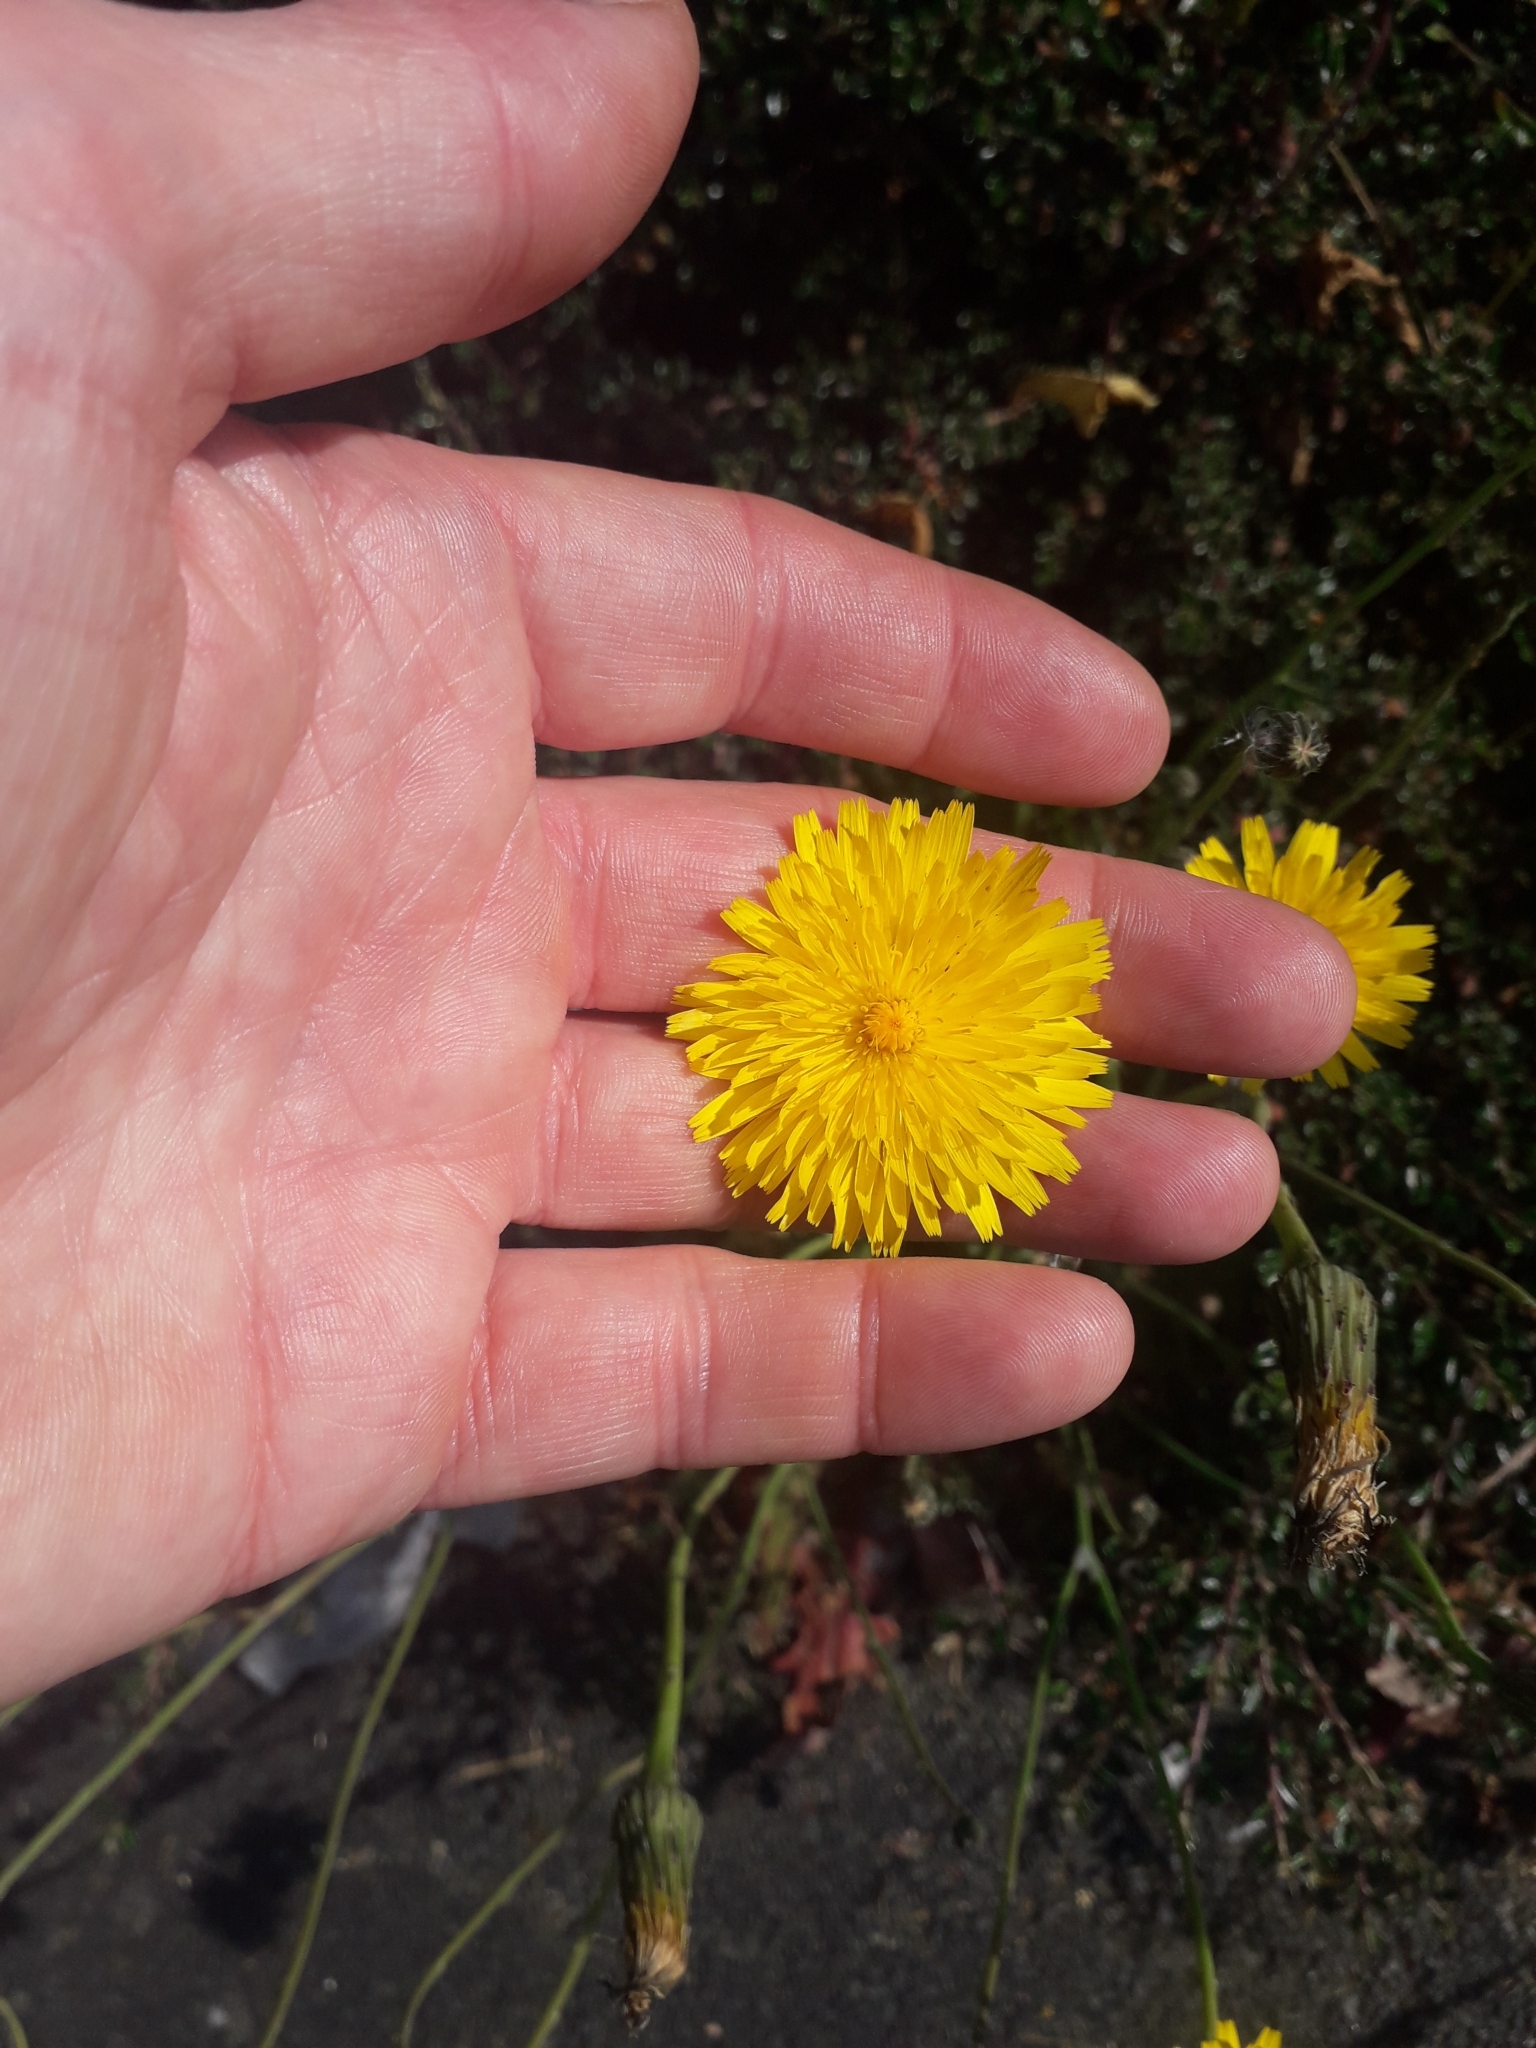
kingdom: Plantae
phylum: Tracheophyta
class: Magnoliopsida
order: Asterales
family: Asteraceae
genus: Hypochaeris
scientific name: Hypochaeris radicata
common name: Flatweed
